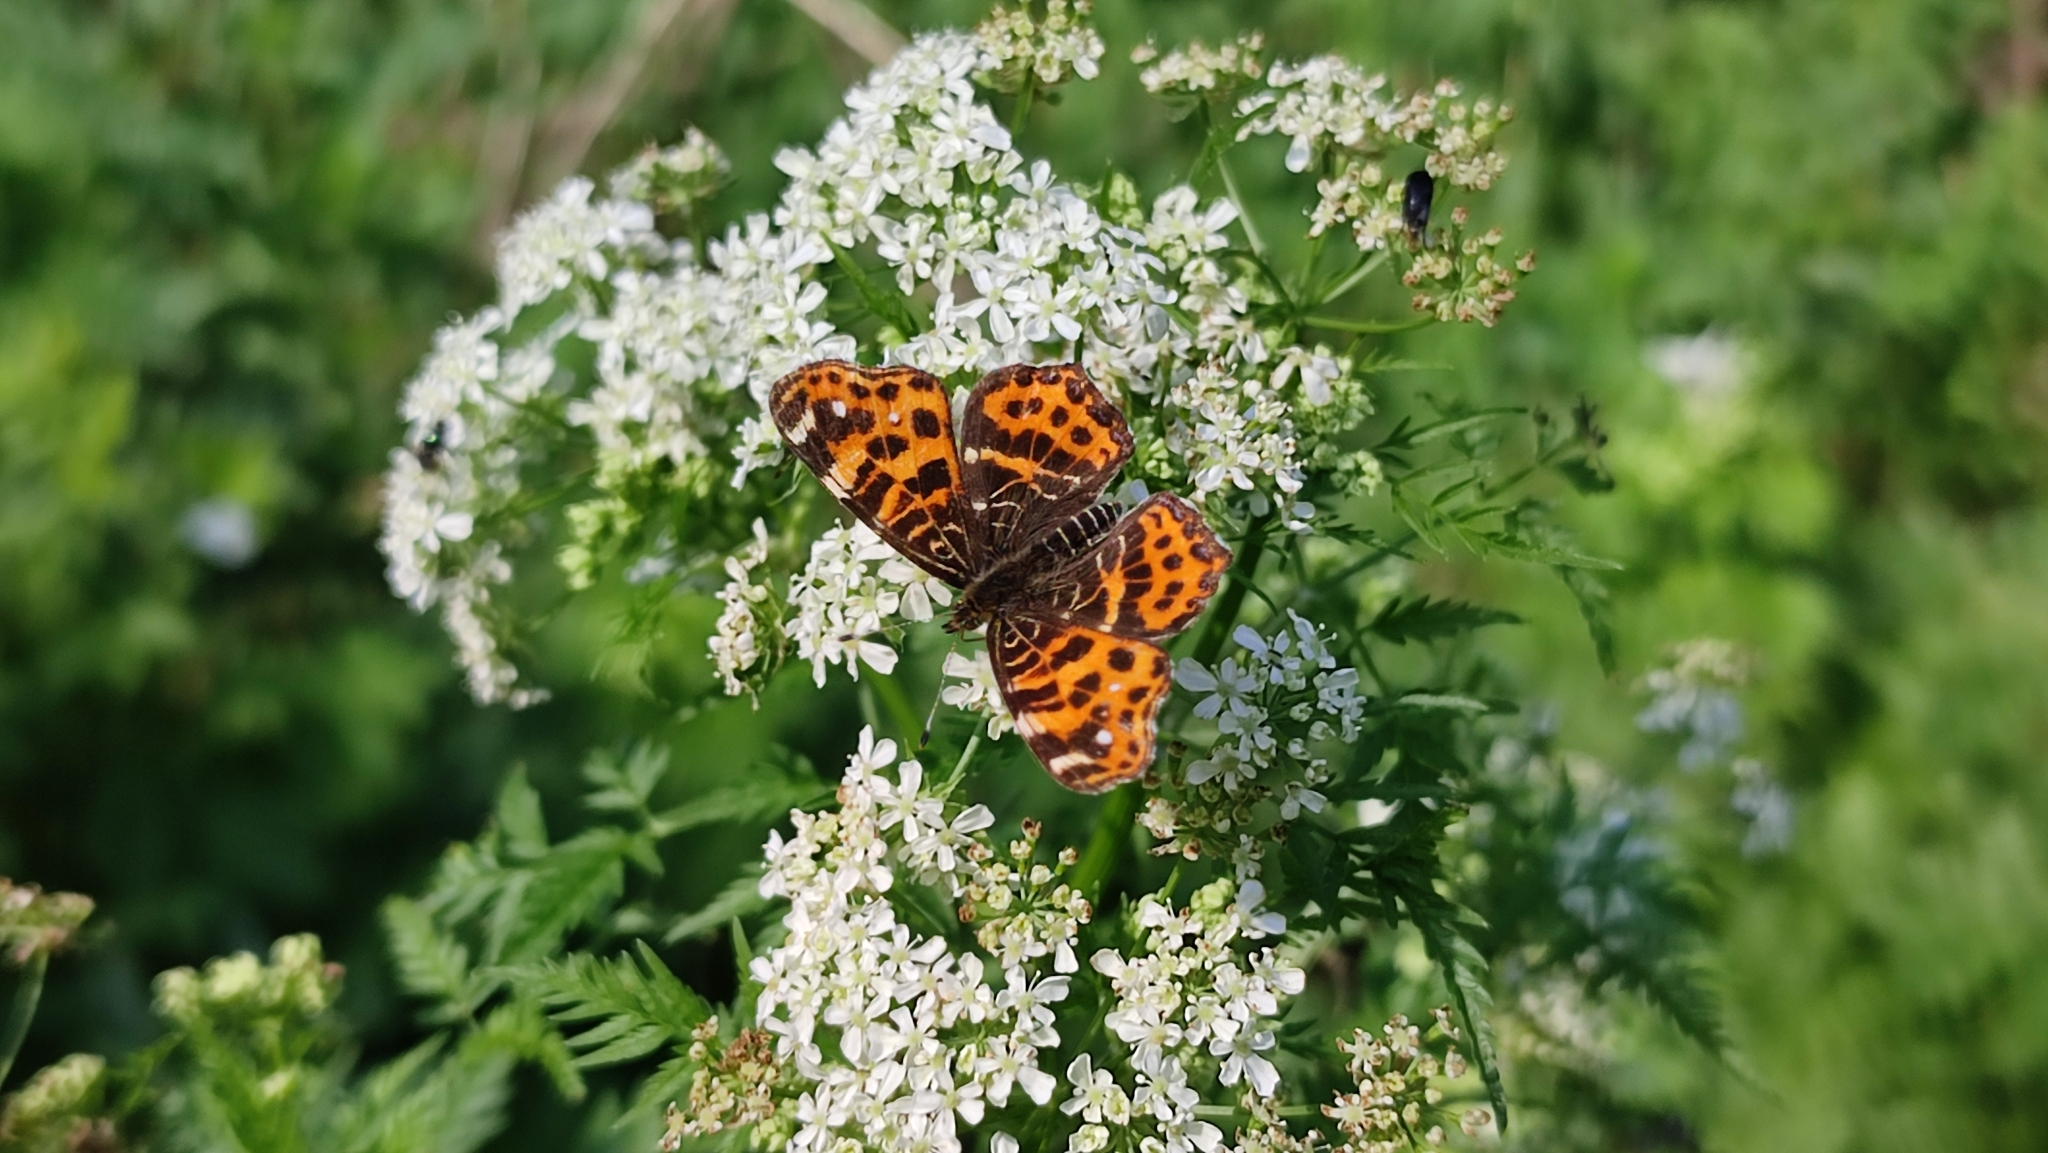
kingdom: Animalia
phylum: Arthropoda
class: Insecta
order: Lepidoptera
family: Nymphalidae
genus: Araschnia
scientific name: Araschnia levana
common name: Map butterfly
